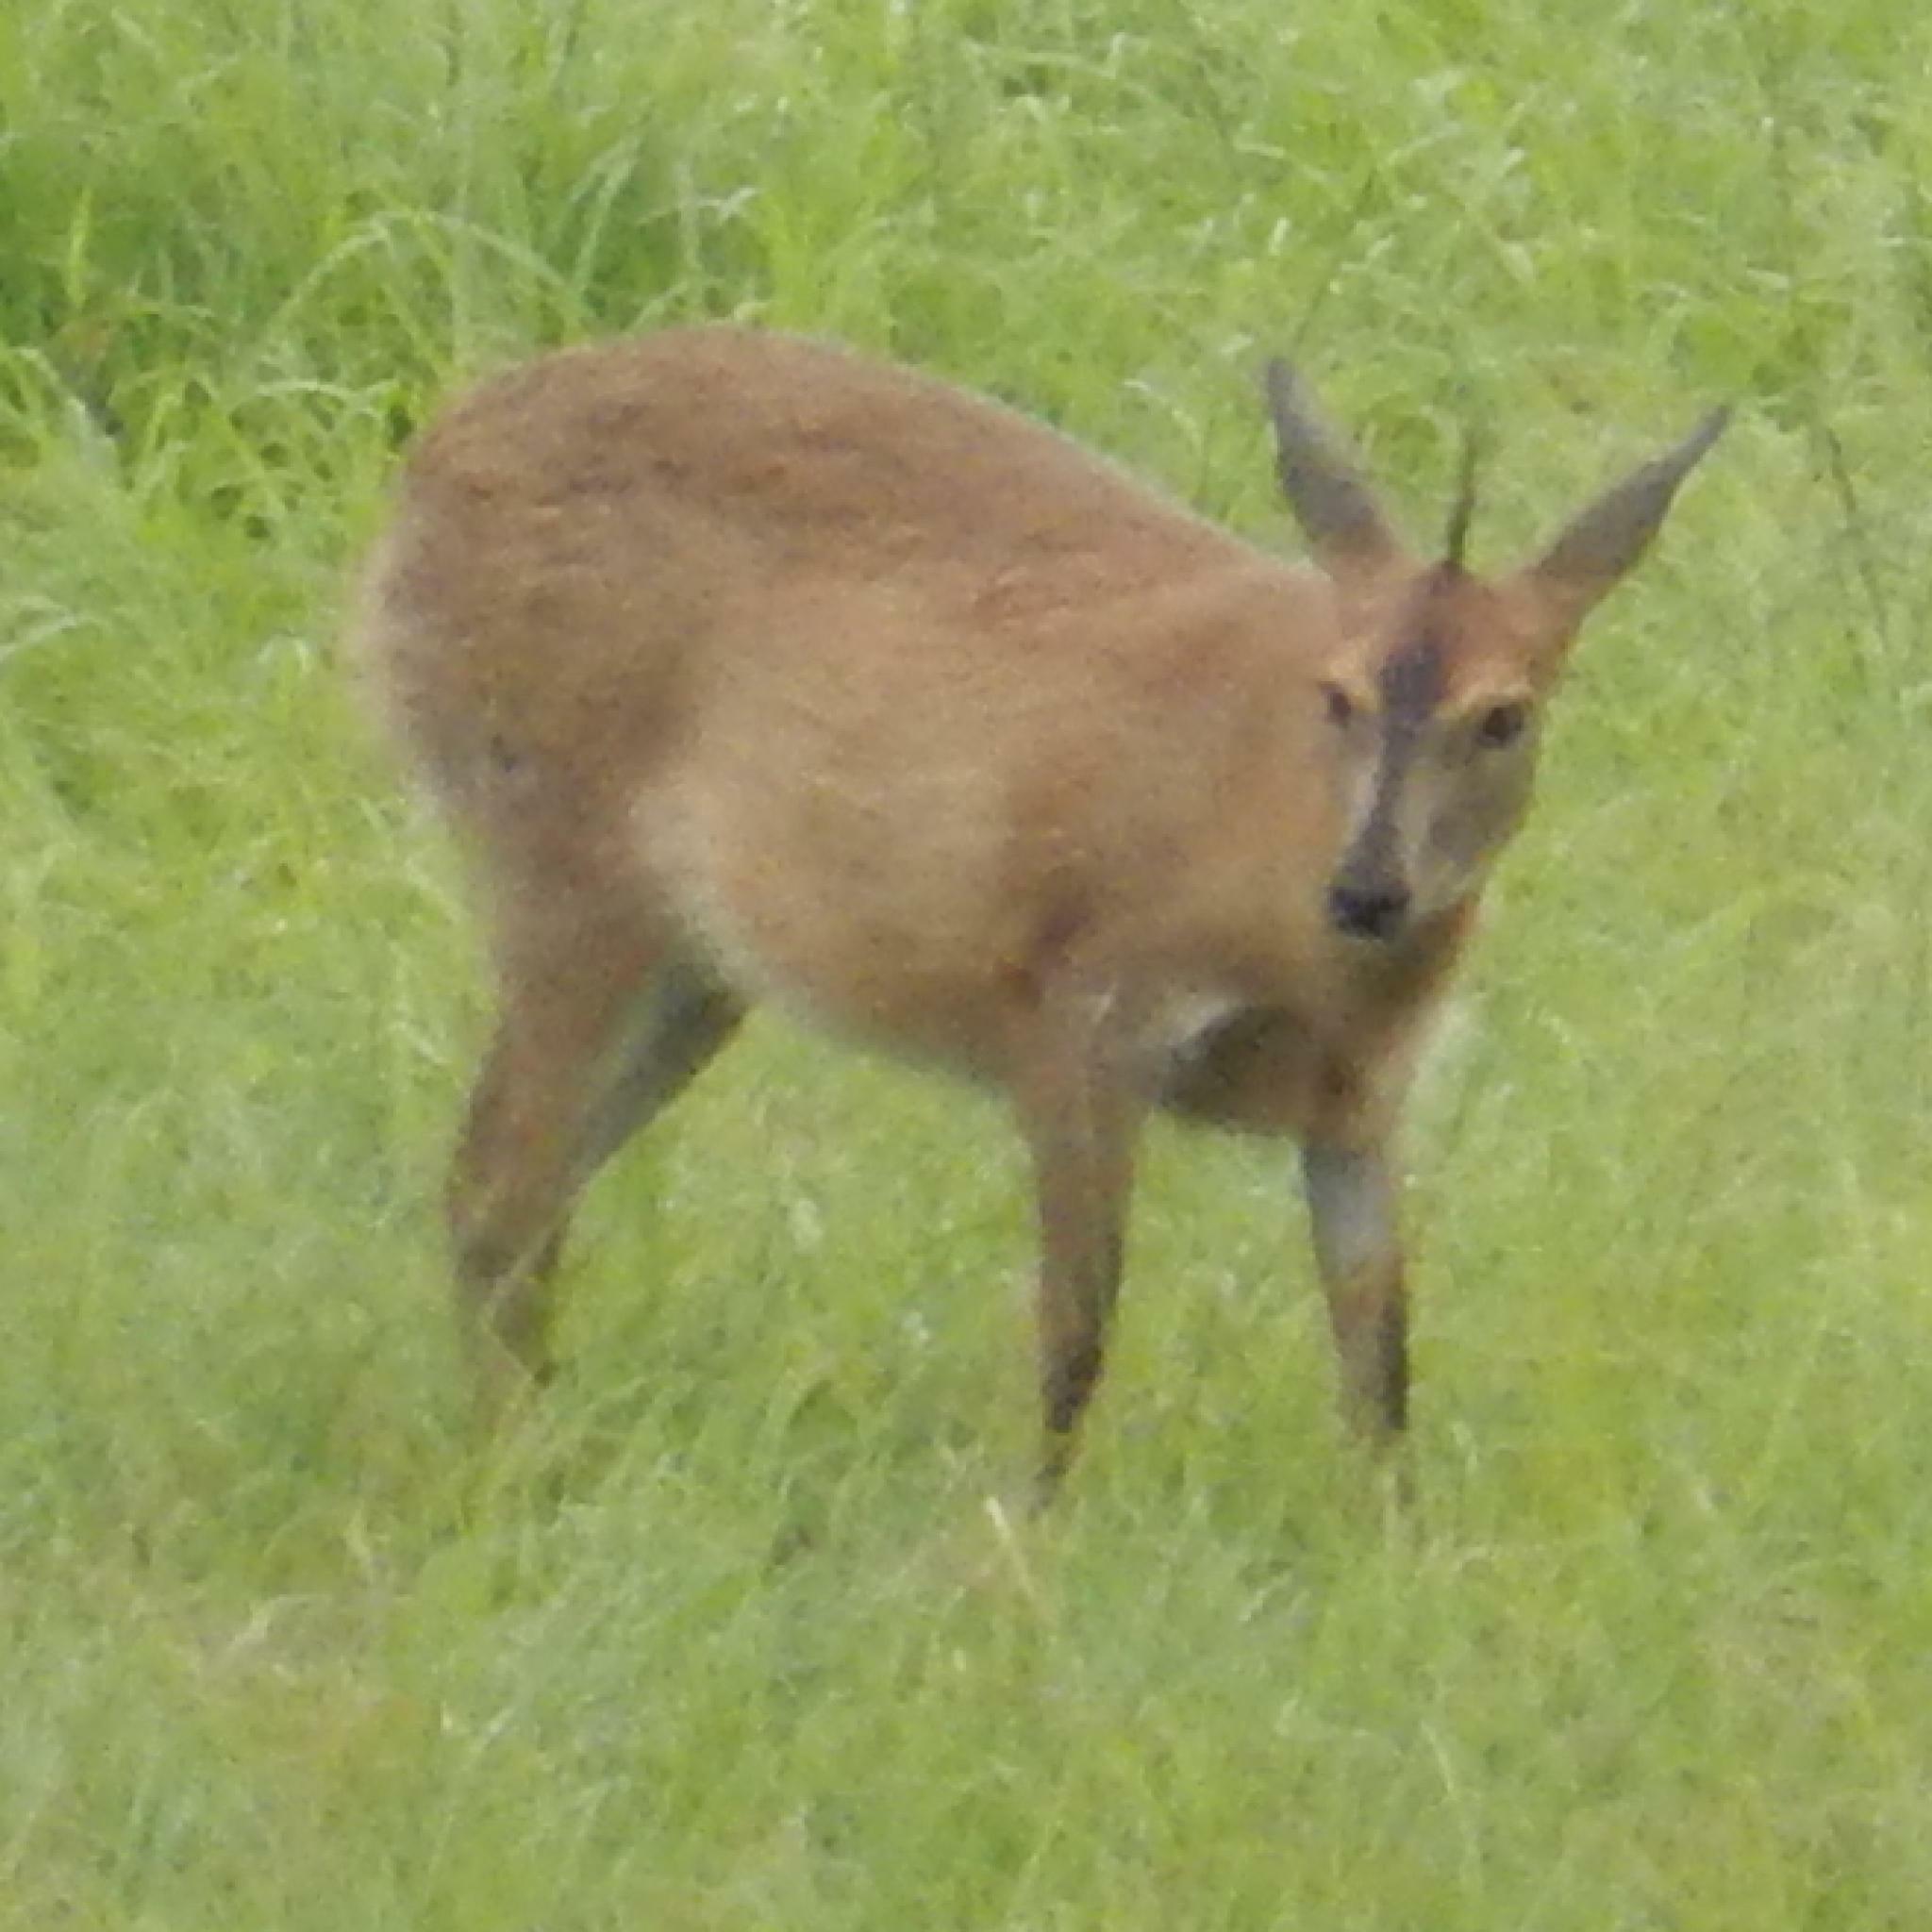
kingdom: Animalia
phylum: Chordata
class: Mammalia
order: Artiodactyla
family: Bovidae
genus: Sylvicapra
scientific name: Sylvicapra grimmia
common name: Bush duiker
